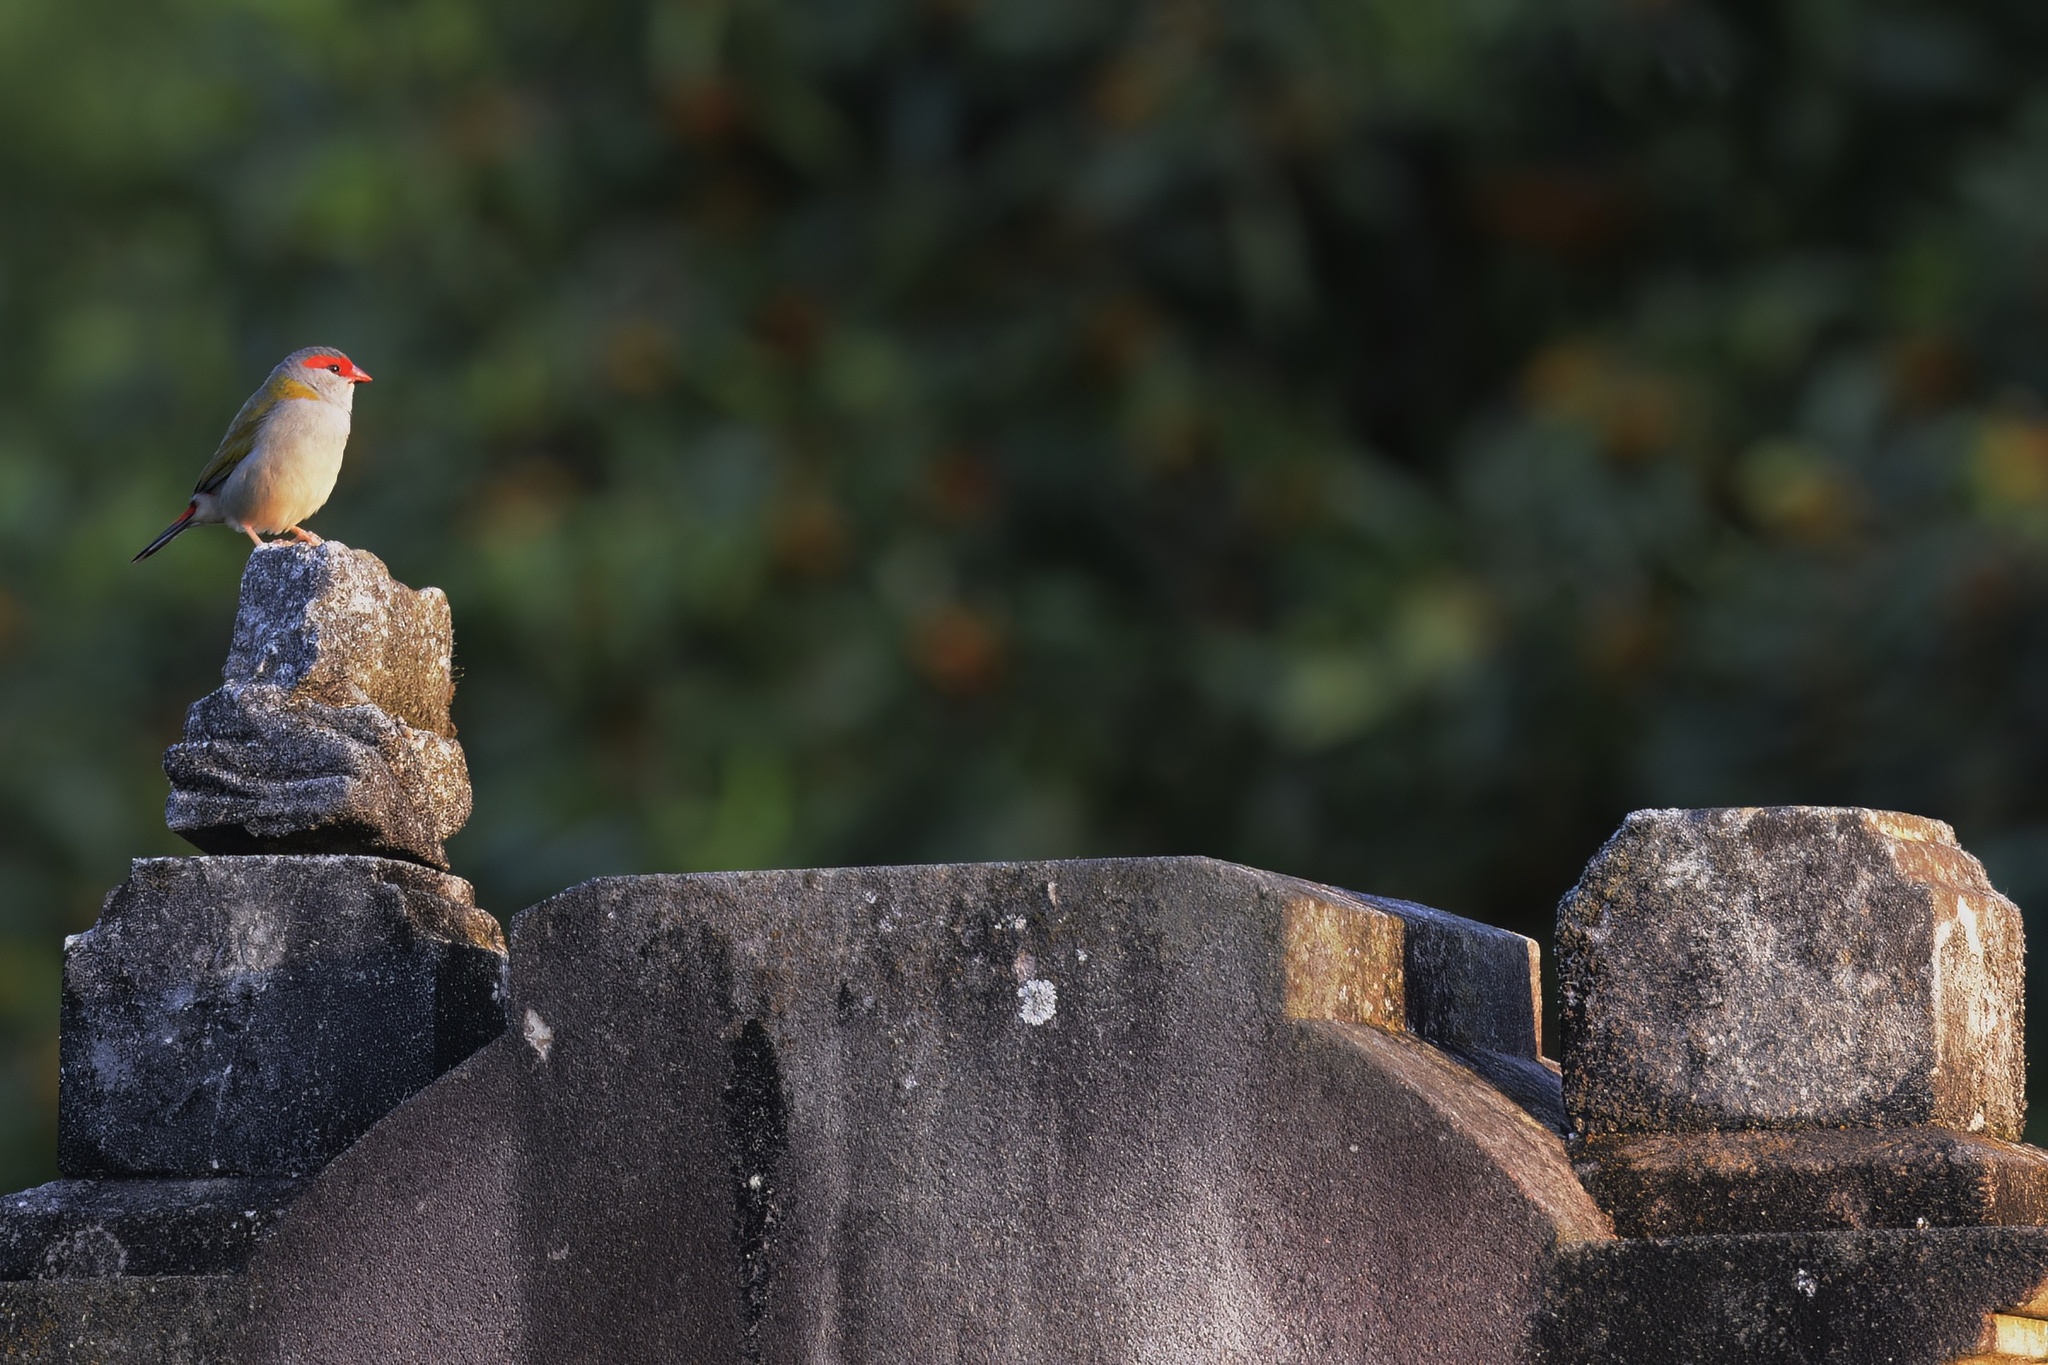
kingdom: Animalia
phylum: Chordata
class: Aves
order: Passeriformes
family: Estrildidae
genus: Neochmia
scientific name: Neochmia temporalis
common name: Red-browed finch
